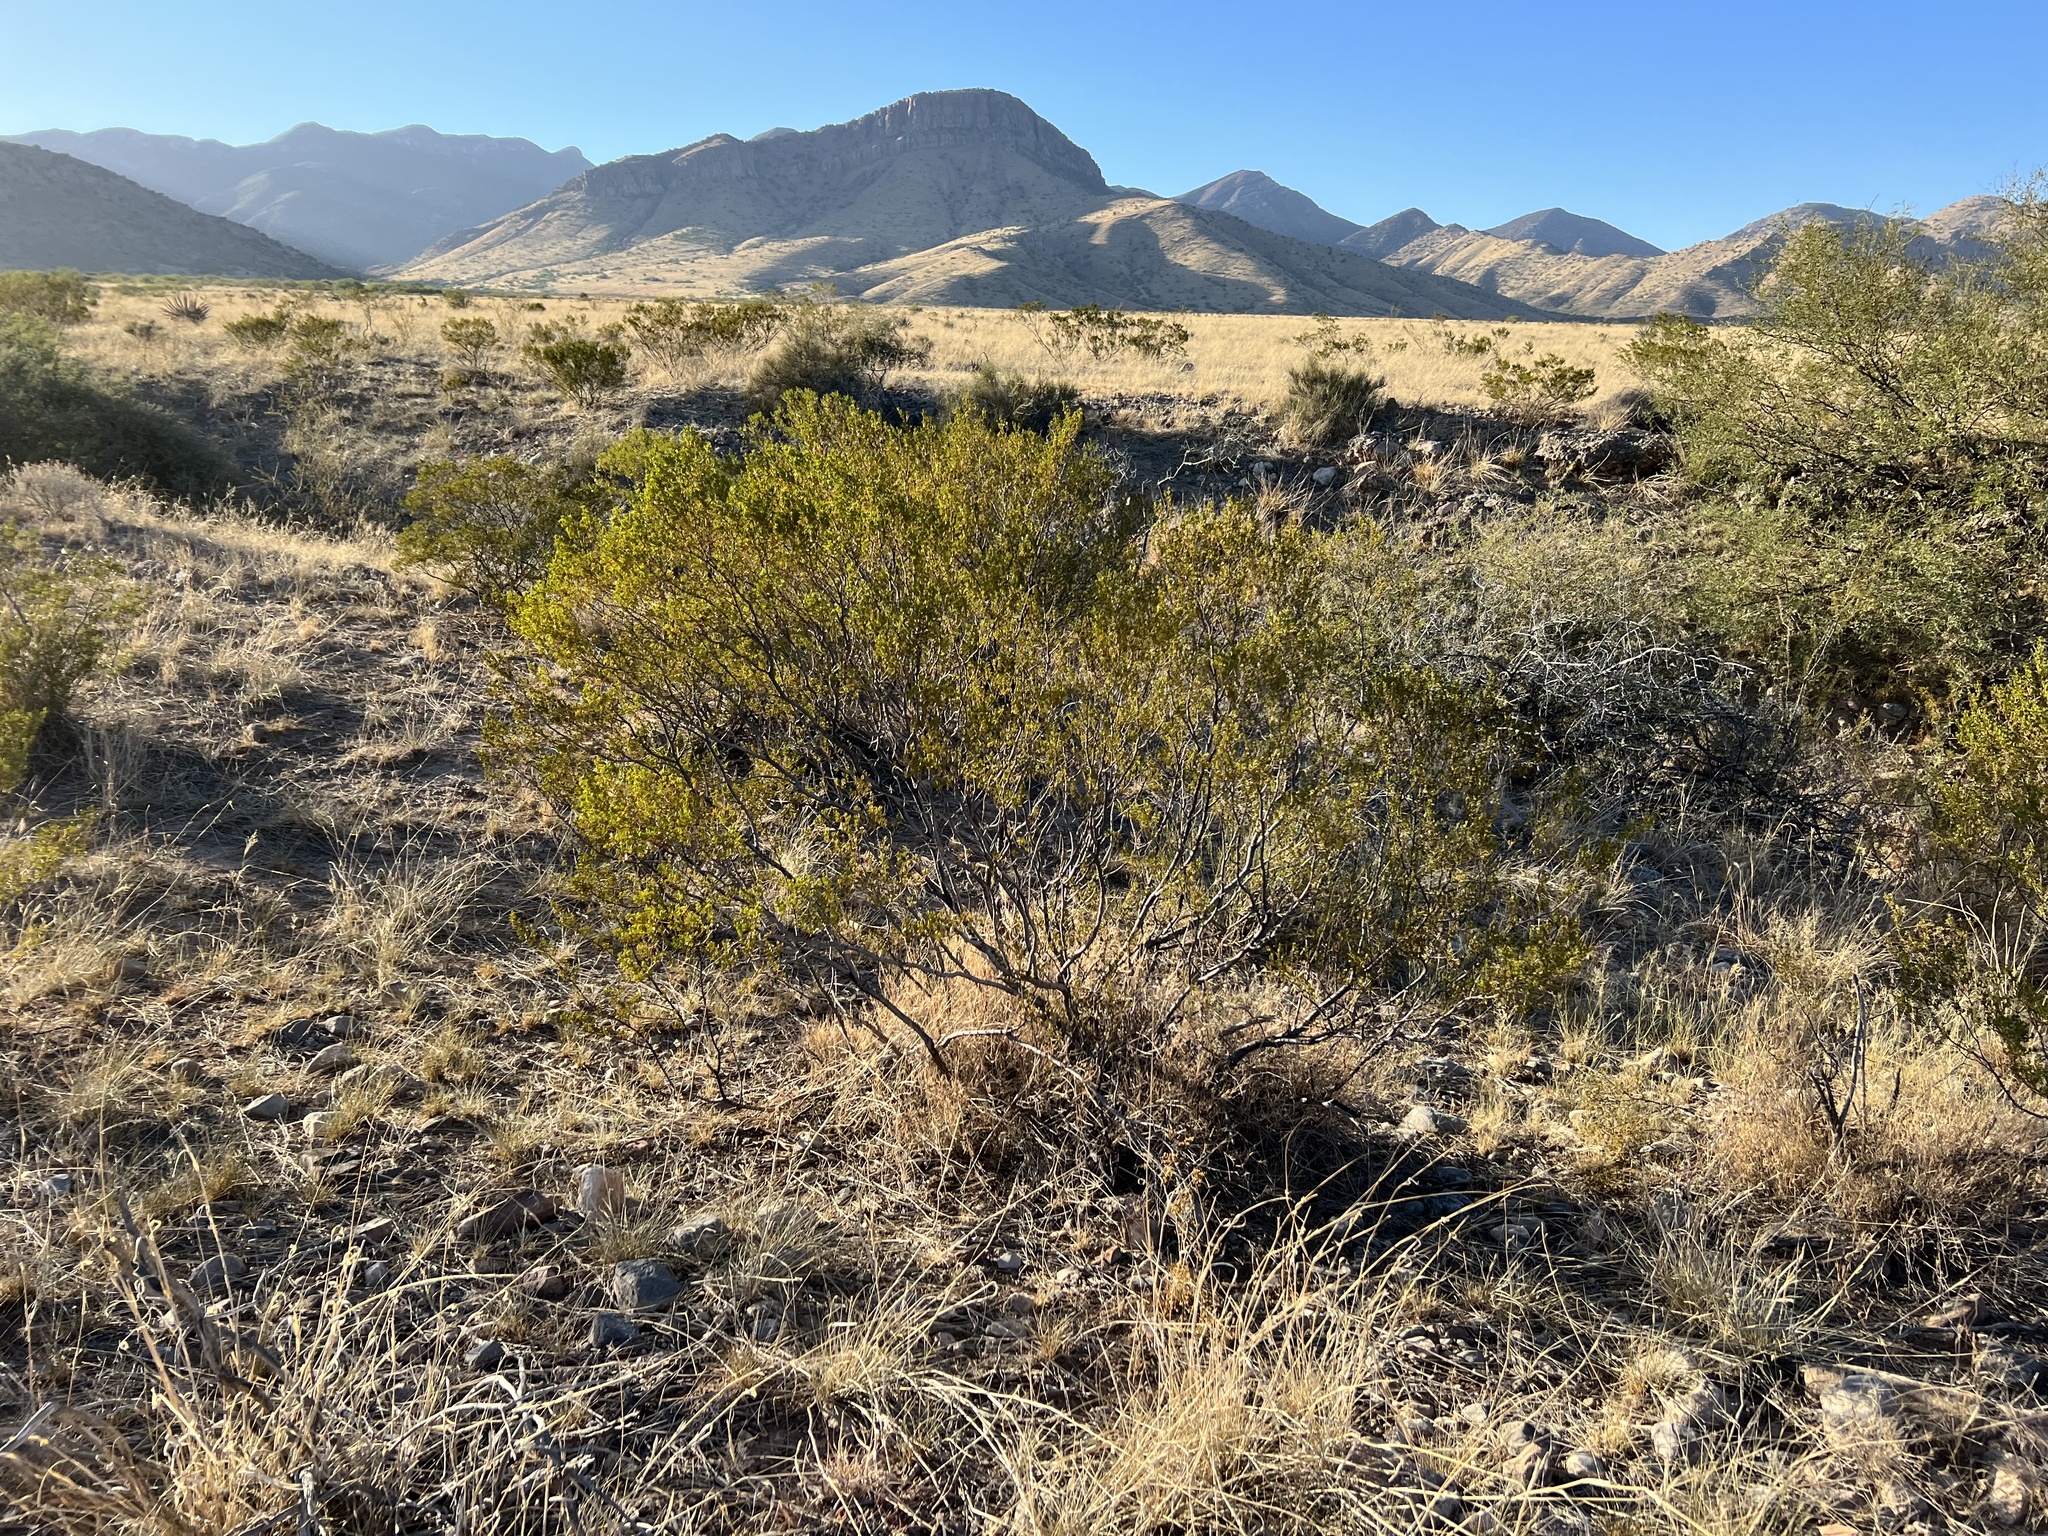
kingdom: Plantae
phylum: Tracheophyta
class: Magnoliopsida
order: Zygophyllales
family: Zygophyllaceae
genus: Larrea
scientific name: Larrea tridentata
